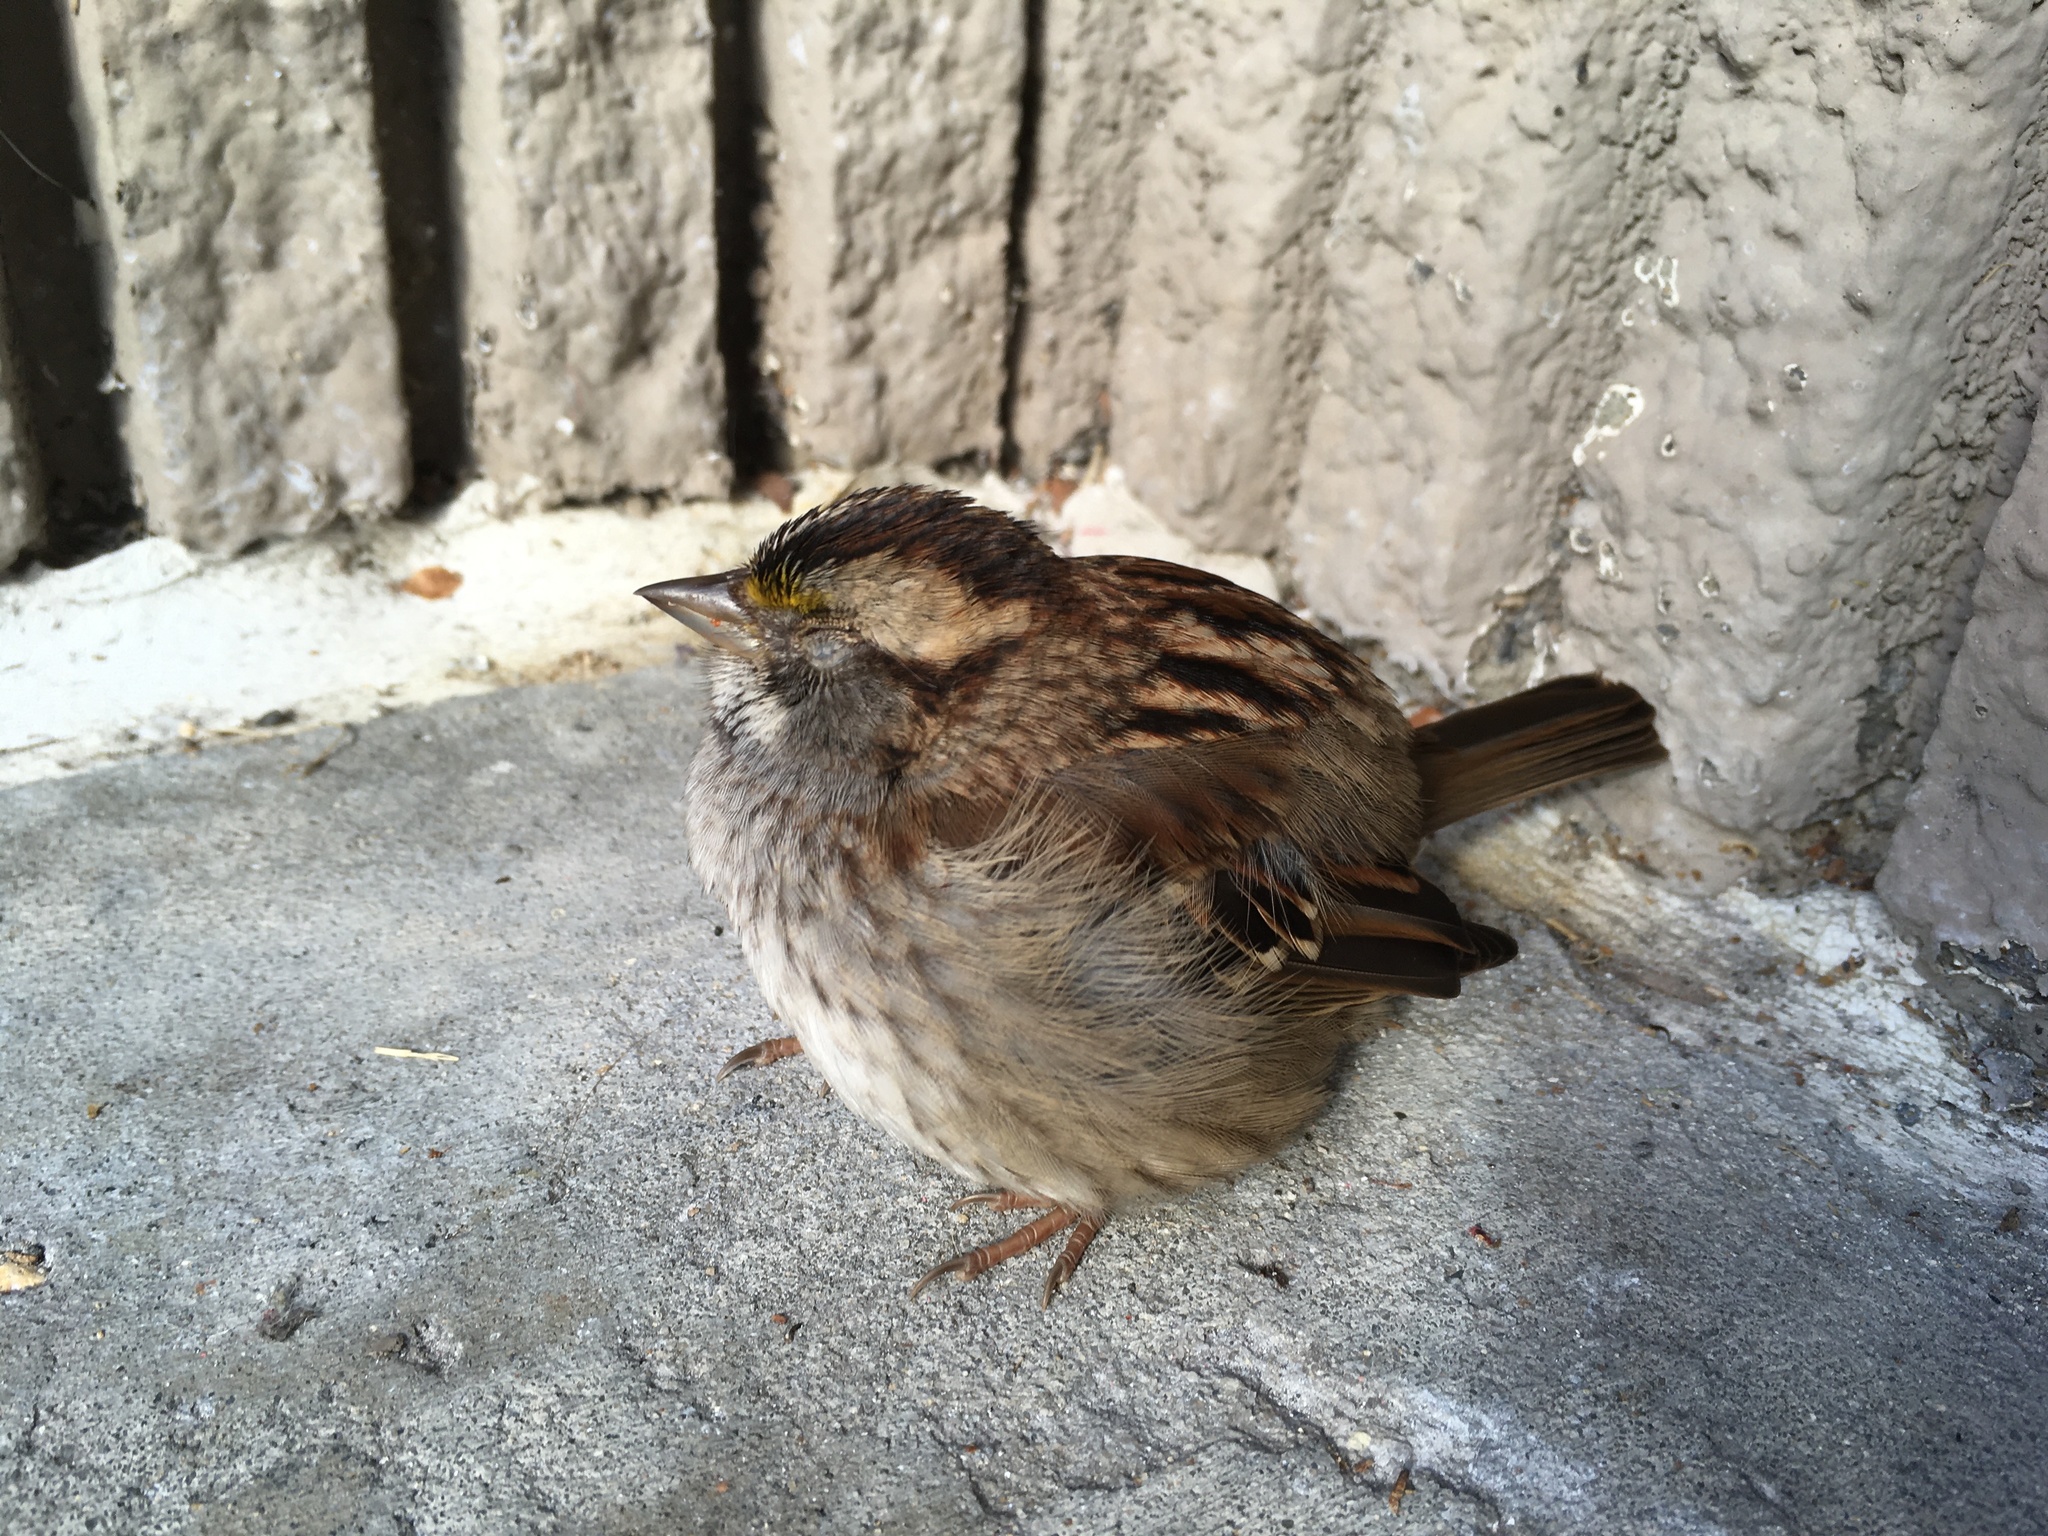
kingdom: Animalia
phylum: Chordata
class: Aves
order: Passeriformes
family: Passerellidae
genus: Zonotrichia
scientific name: Zonotrichia albicollis
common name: White-throated sparrow
